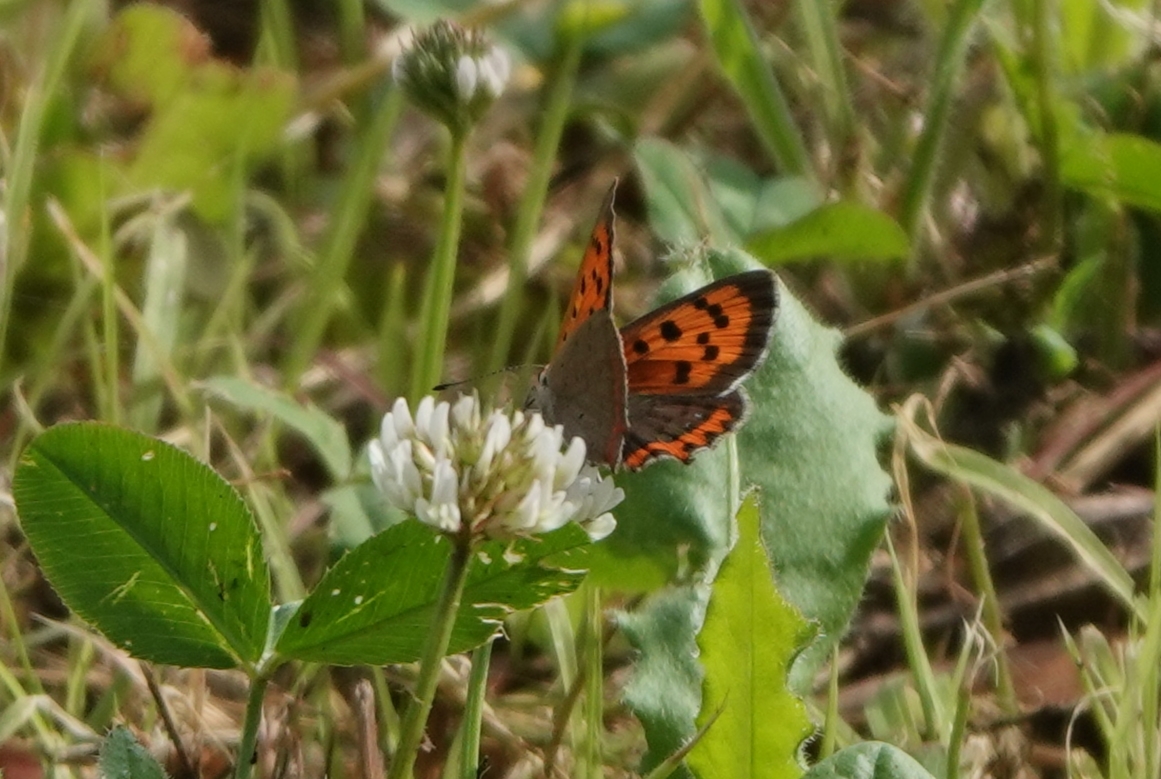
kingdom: Animalia
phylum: Arthropoda
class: Insecta
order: Lepidoptera
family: Lycaenidae
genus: Lycaena
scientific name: Lycaena phlaeas
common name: Small copper
